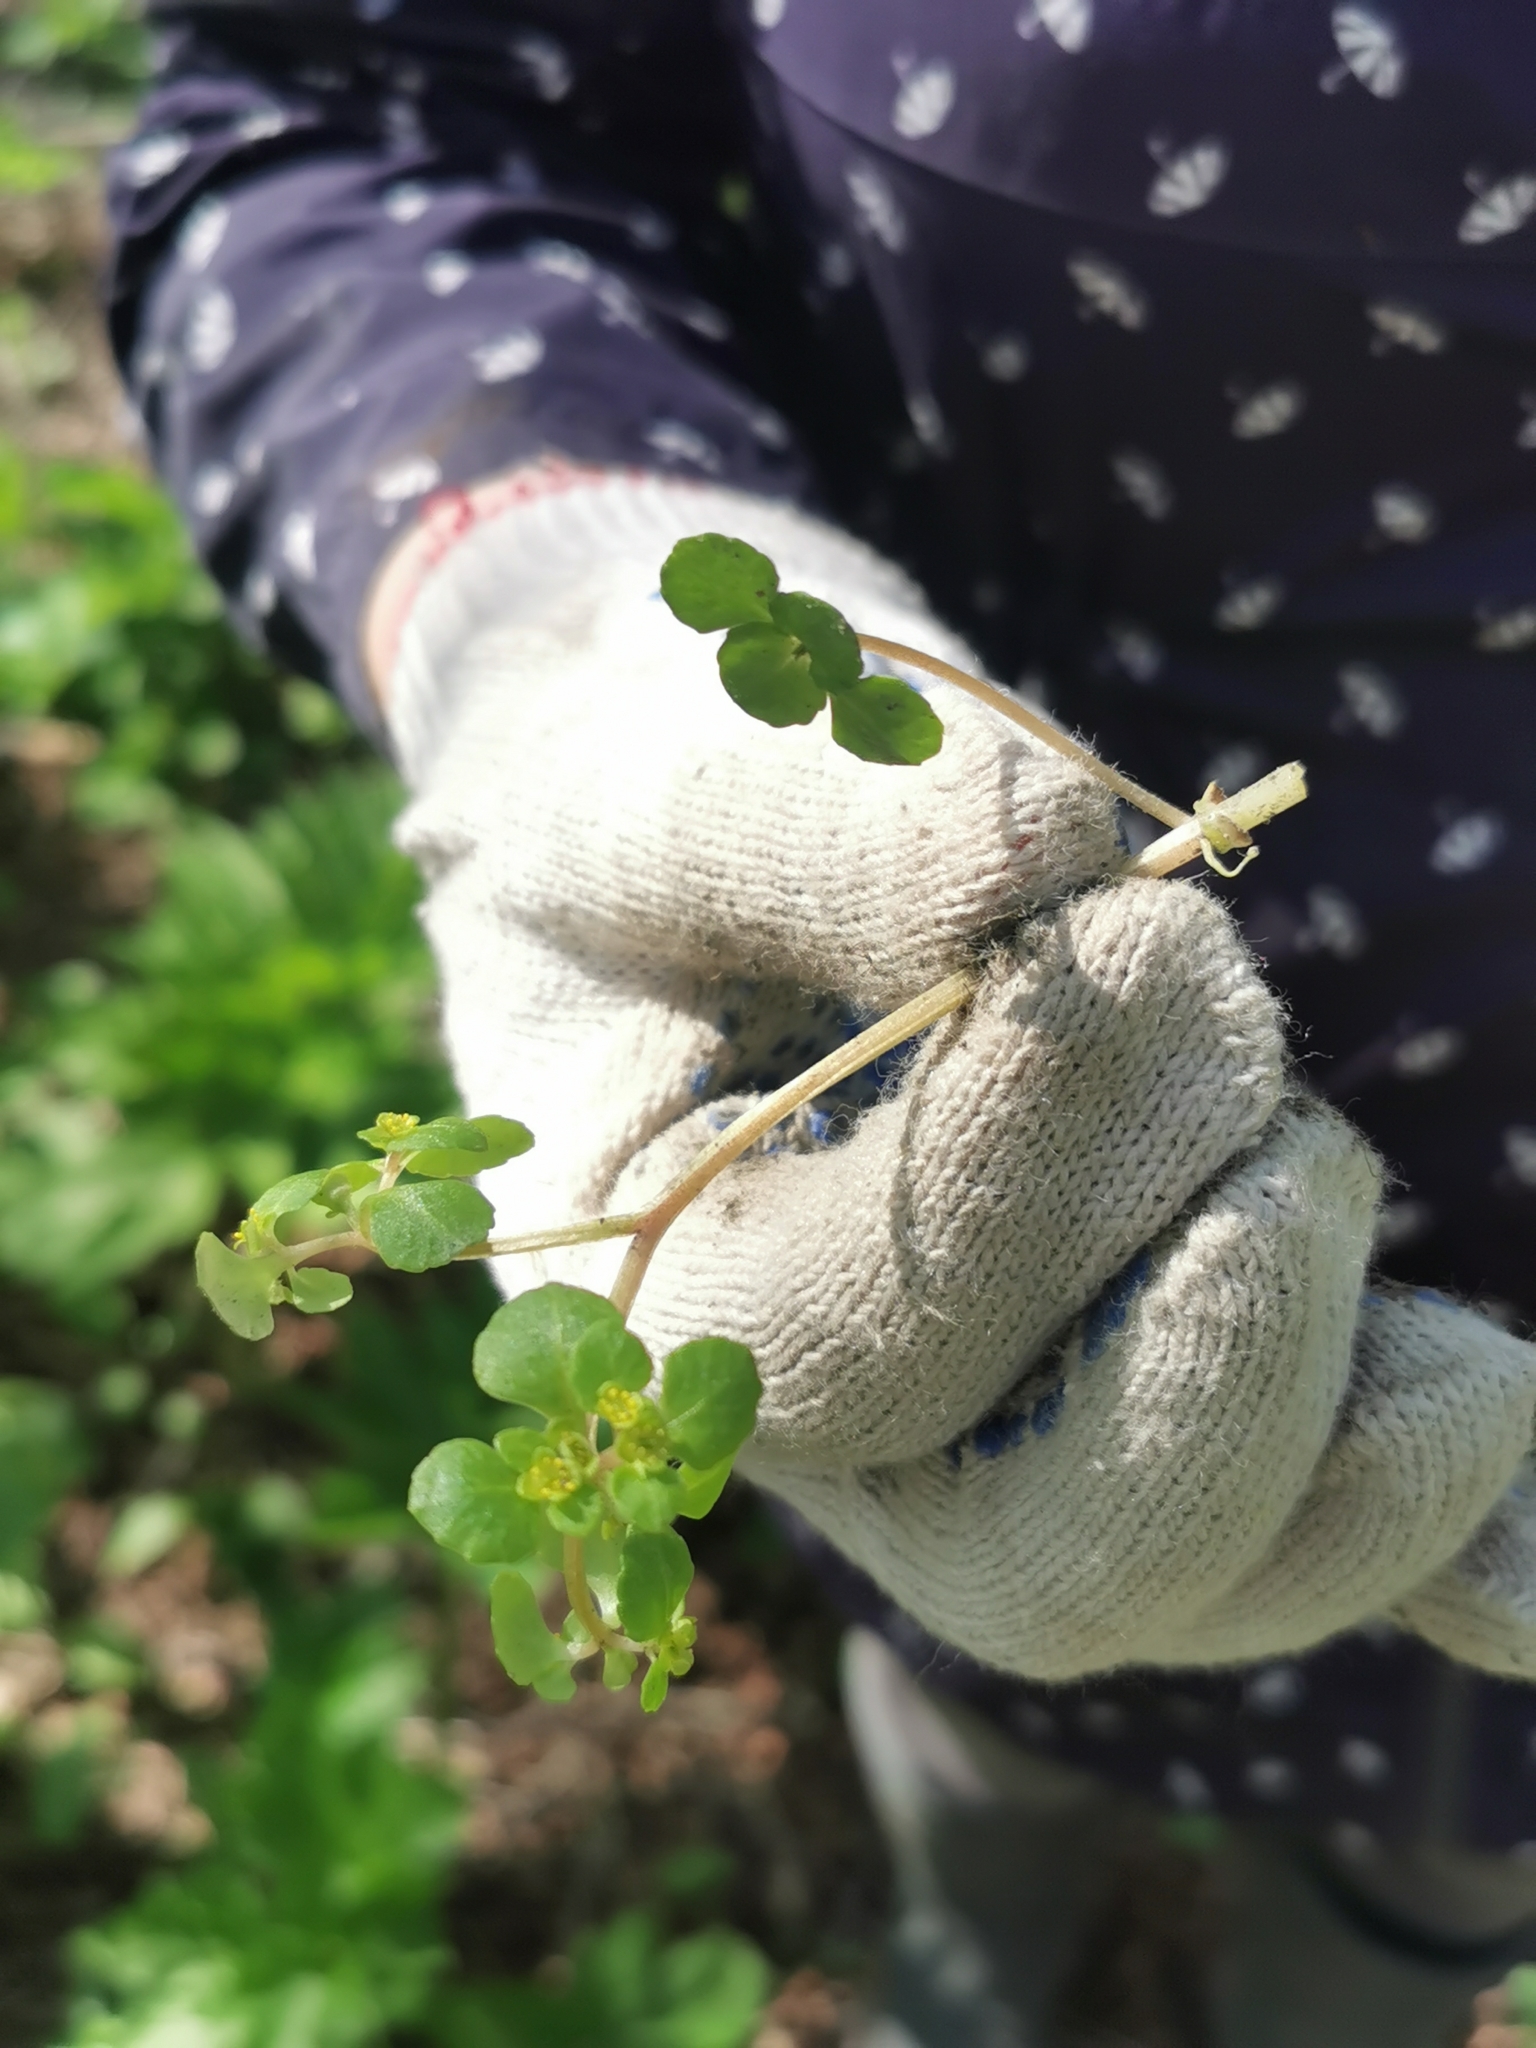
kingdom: Plantae
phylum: Tracheophyta
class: Magnoliopsida
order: Saxifragales
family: Saxifragaceae
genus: Chrysosplenium
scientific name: Chrysosplenium kamtschaticum
